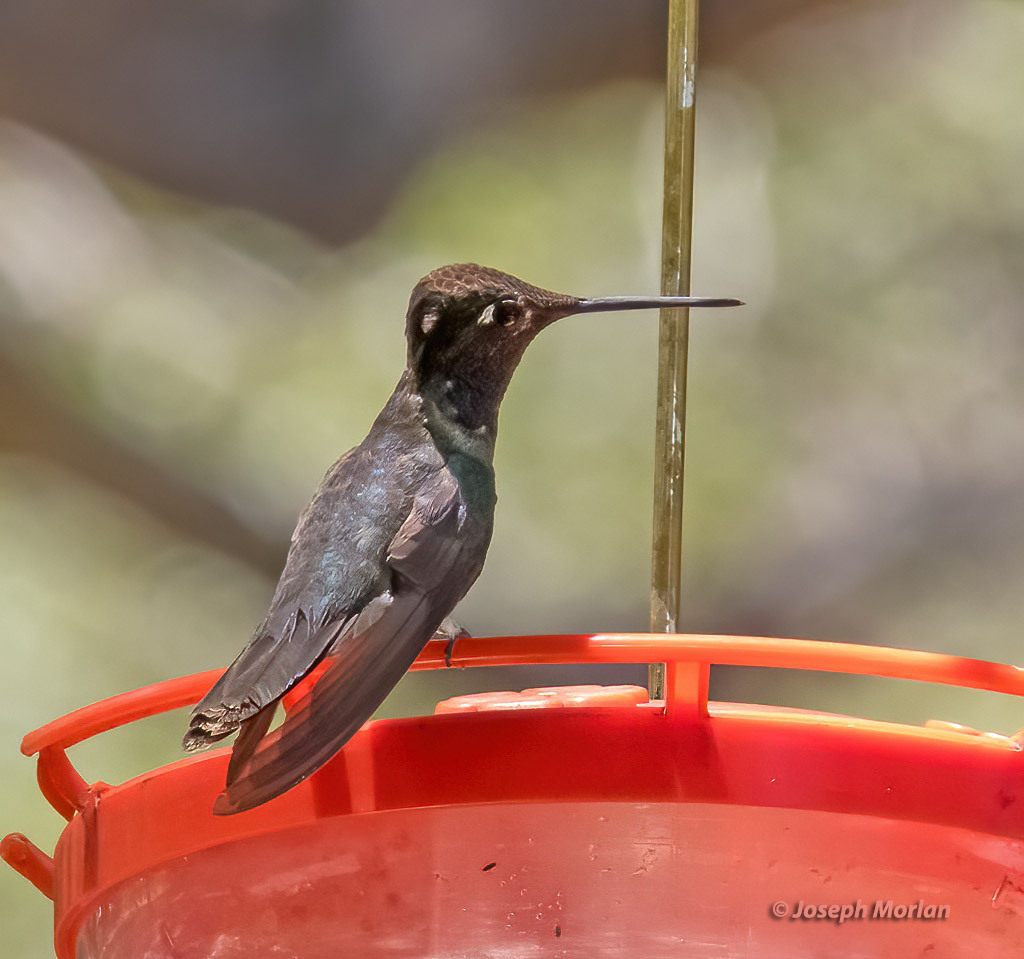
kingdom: Animalia
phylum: Chordata
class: Aves
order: Apodiformes
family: Trochilidae
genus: Eugenes
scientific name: Eugenes fulgens
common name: Magnificent hummingbird
